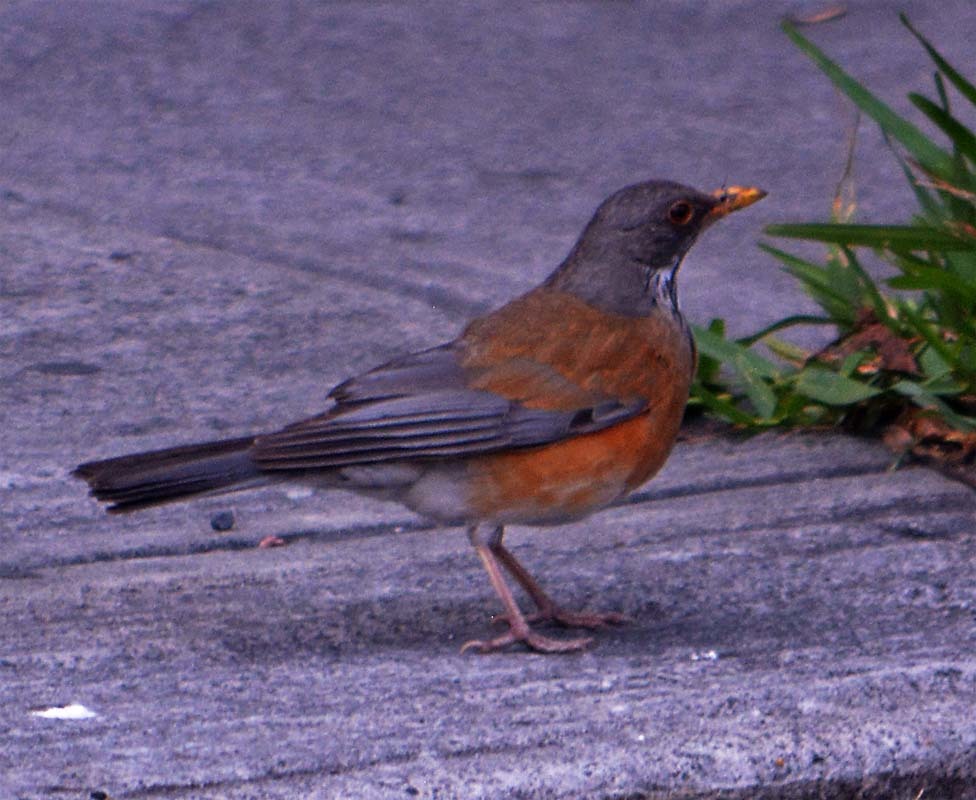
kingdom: Animalia
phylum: Chordata
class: Aves
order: Passeriformes
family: Turdidae
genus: Turdus
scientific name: Turdus rufopalliatus
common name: Rufous-backed robin
